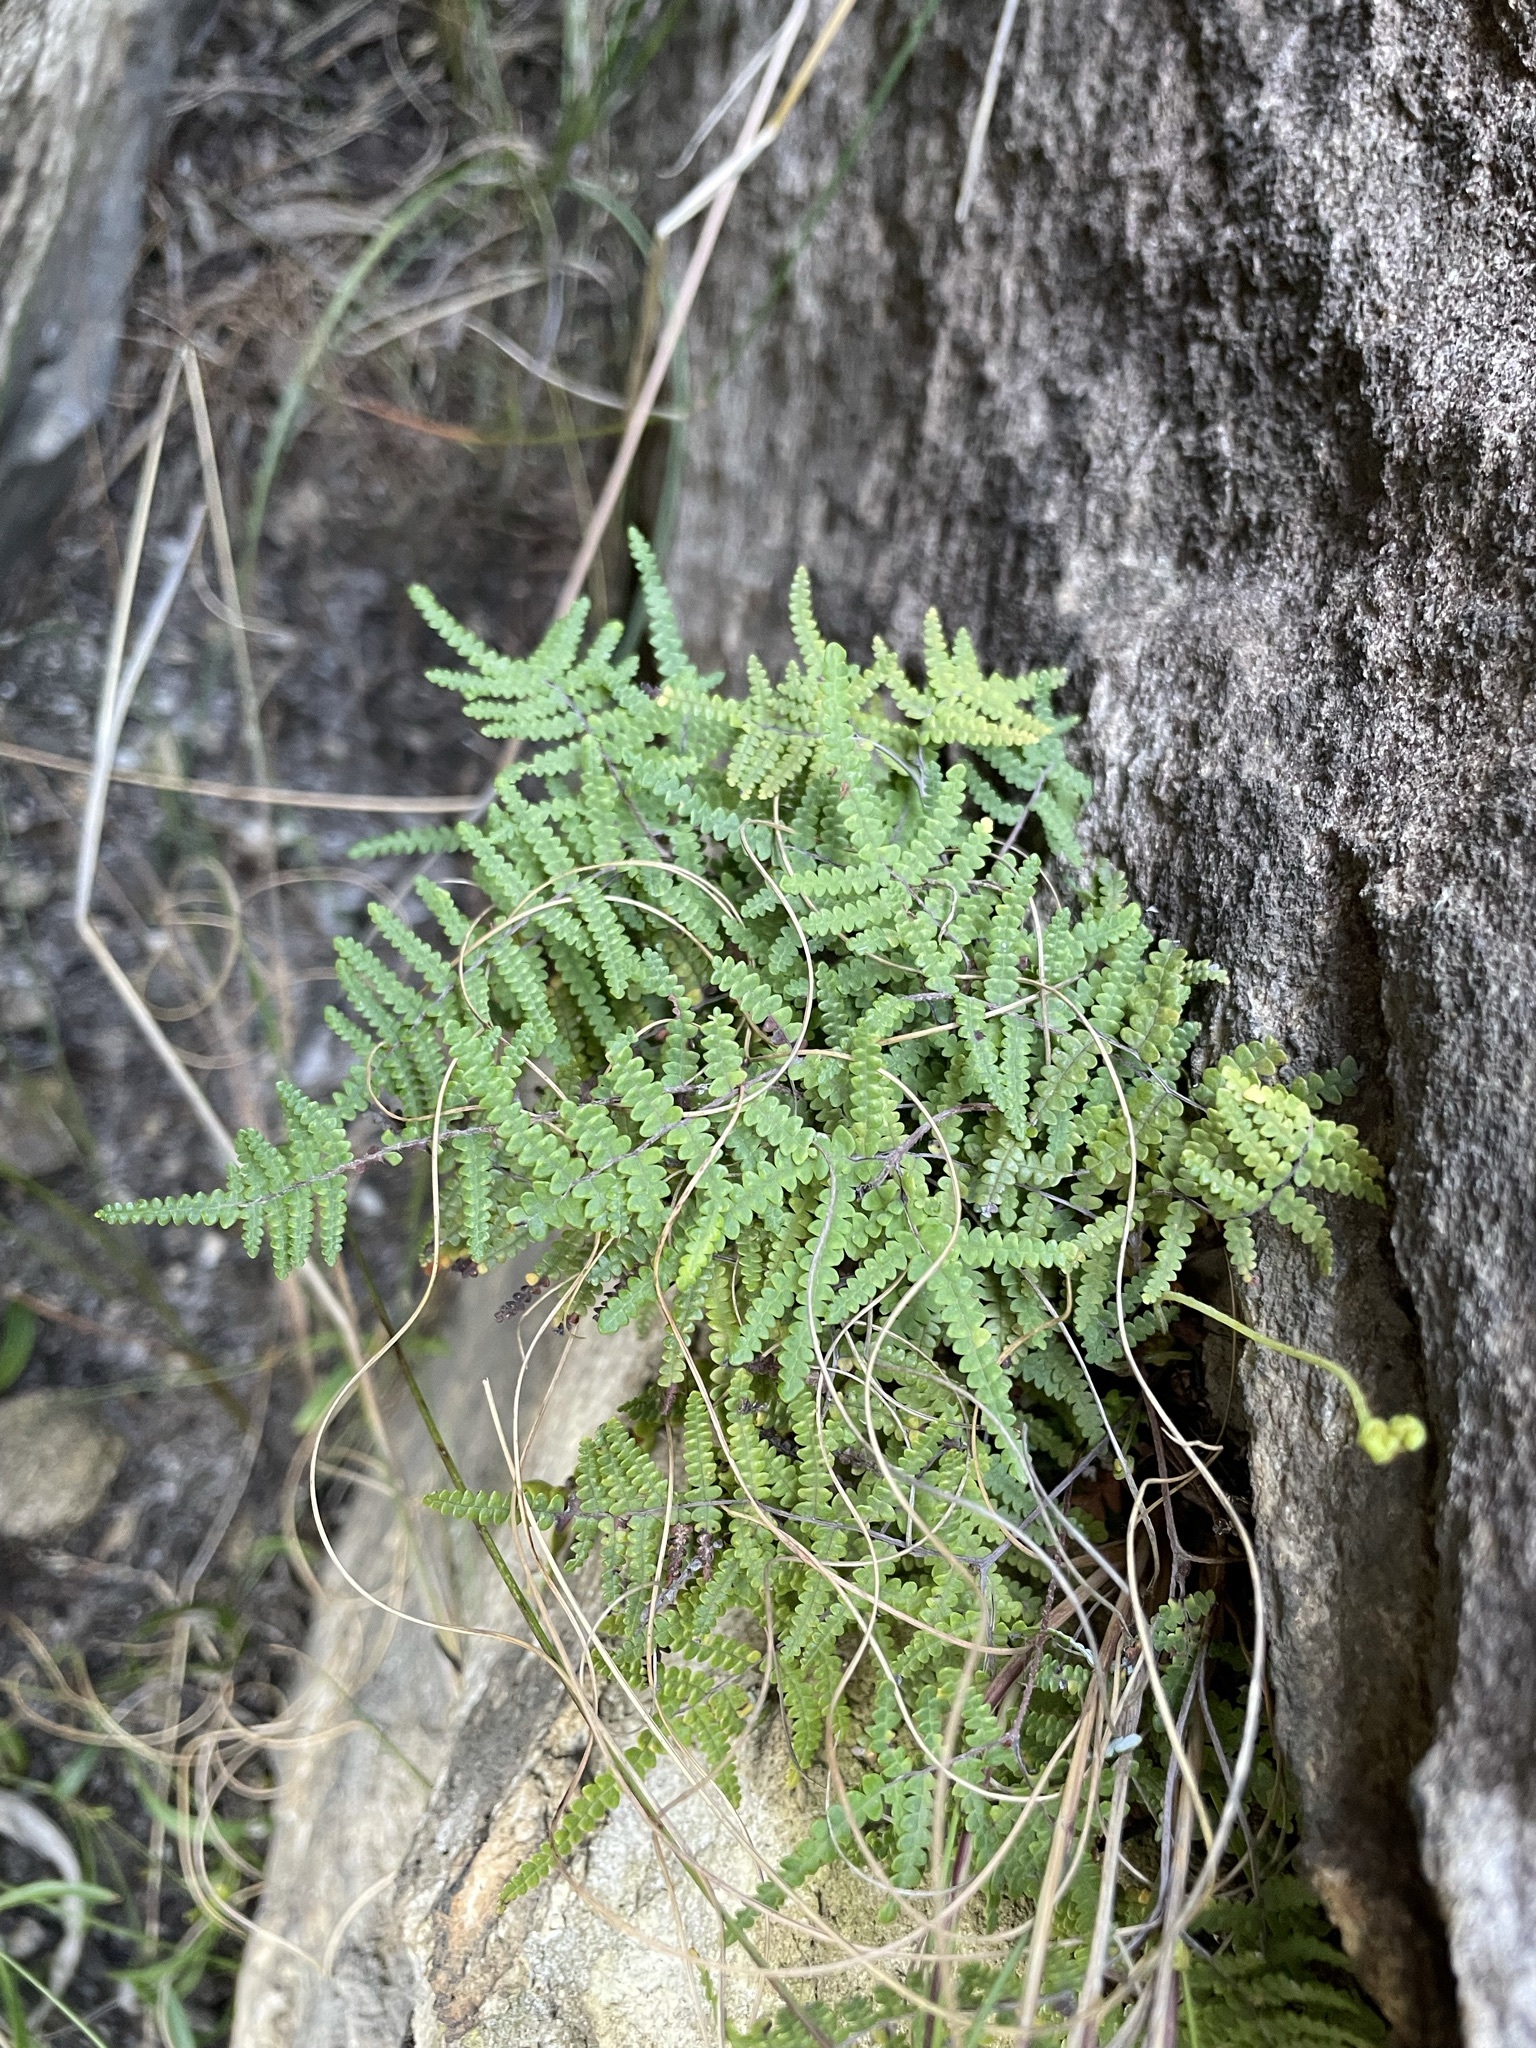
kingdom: Plantae
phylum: Tracheophyta
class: Polypodiopsida
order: Gleicheniales
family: Gleicheniaceae
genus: Gleichenia
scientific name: Gleichenia polypodioides
